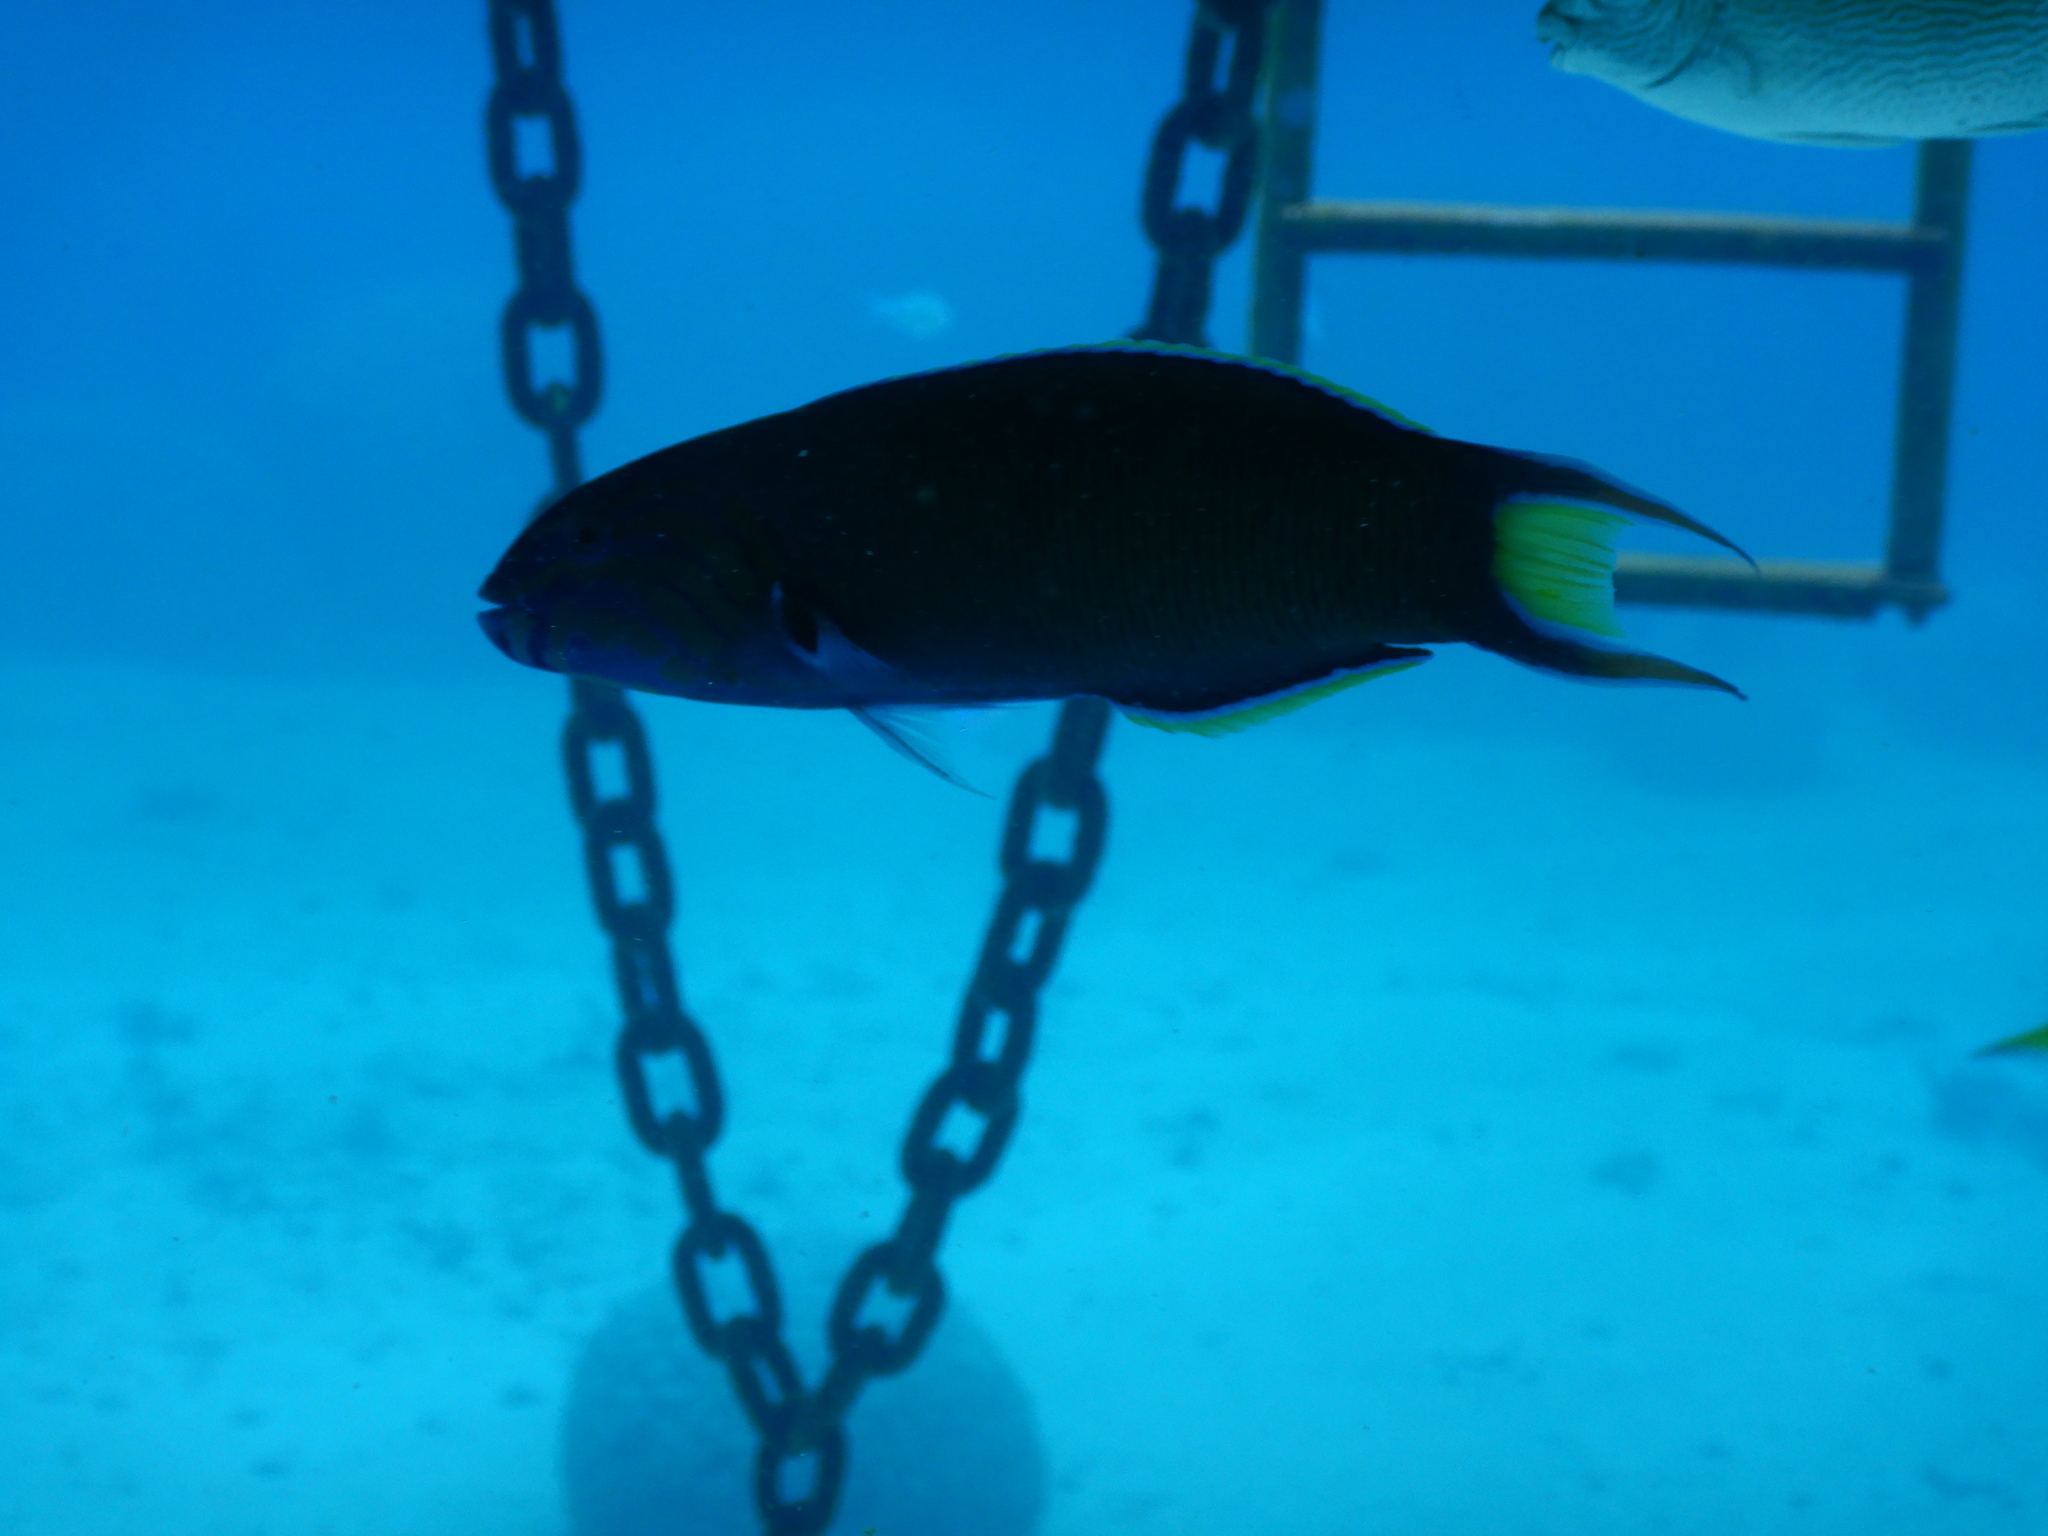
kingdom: Animalia
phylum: Chordata
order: Perciformes
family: Labridae
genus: Thalassoma
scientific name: Thalassoma lunare
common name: Blue wrasse
